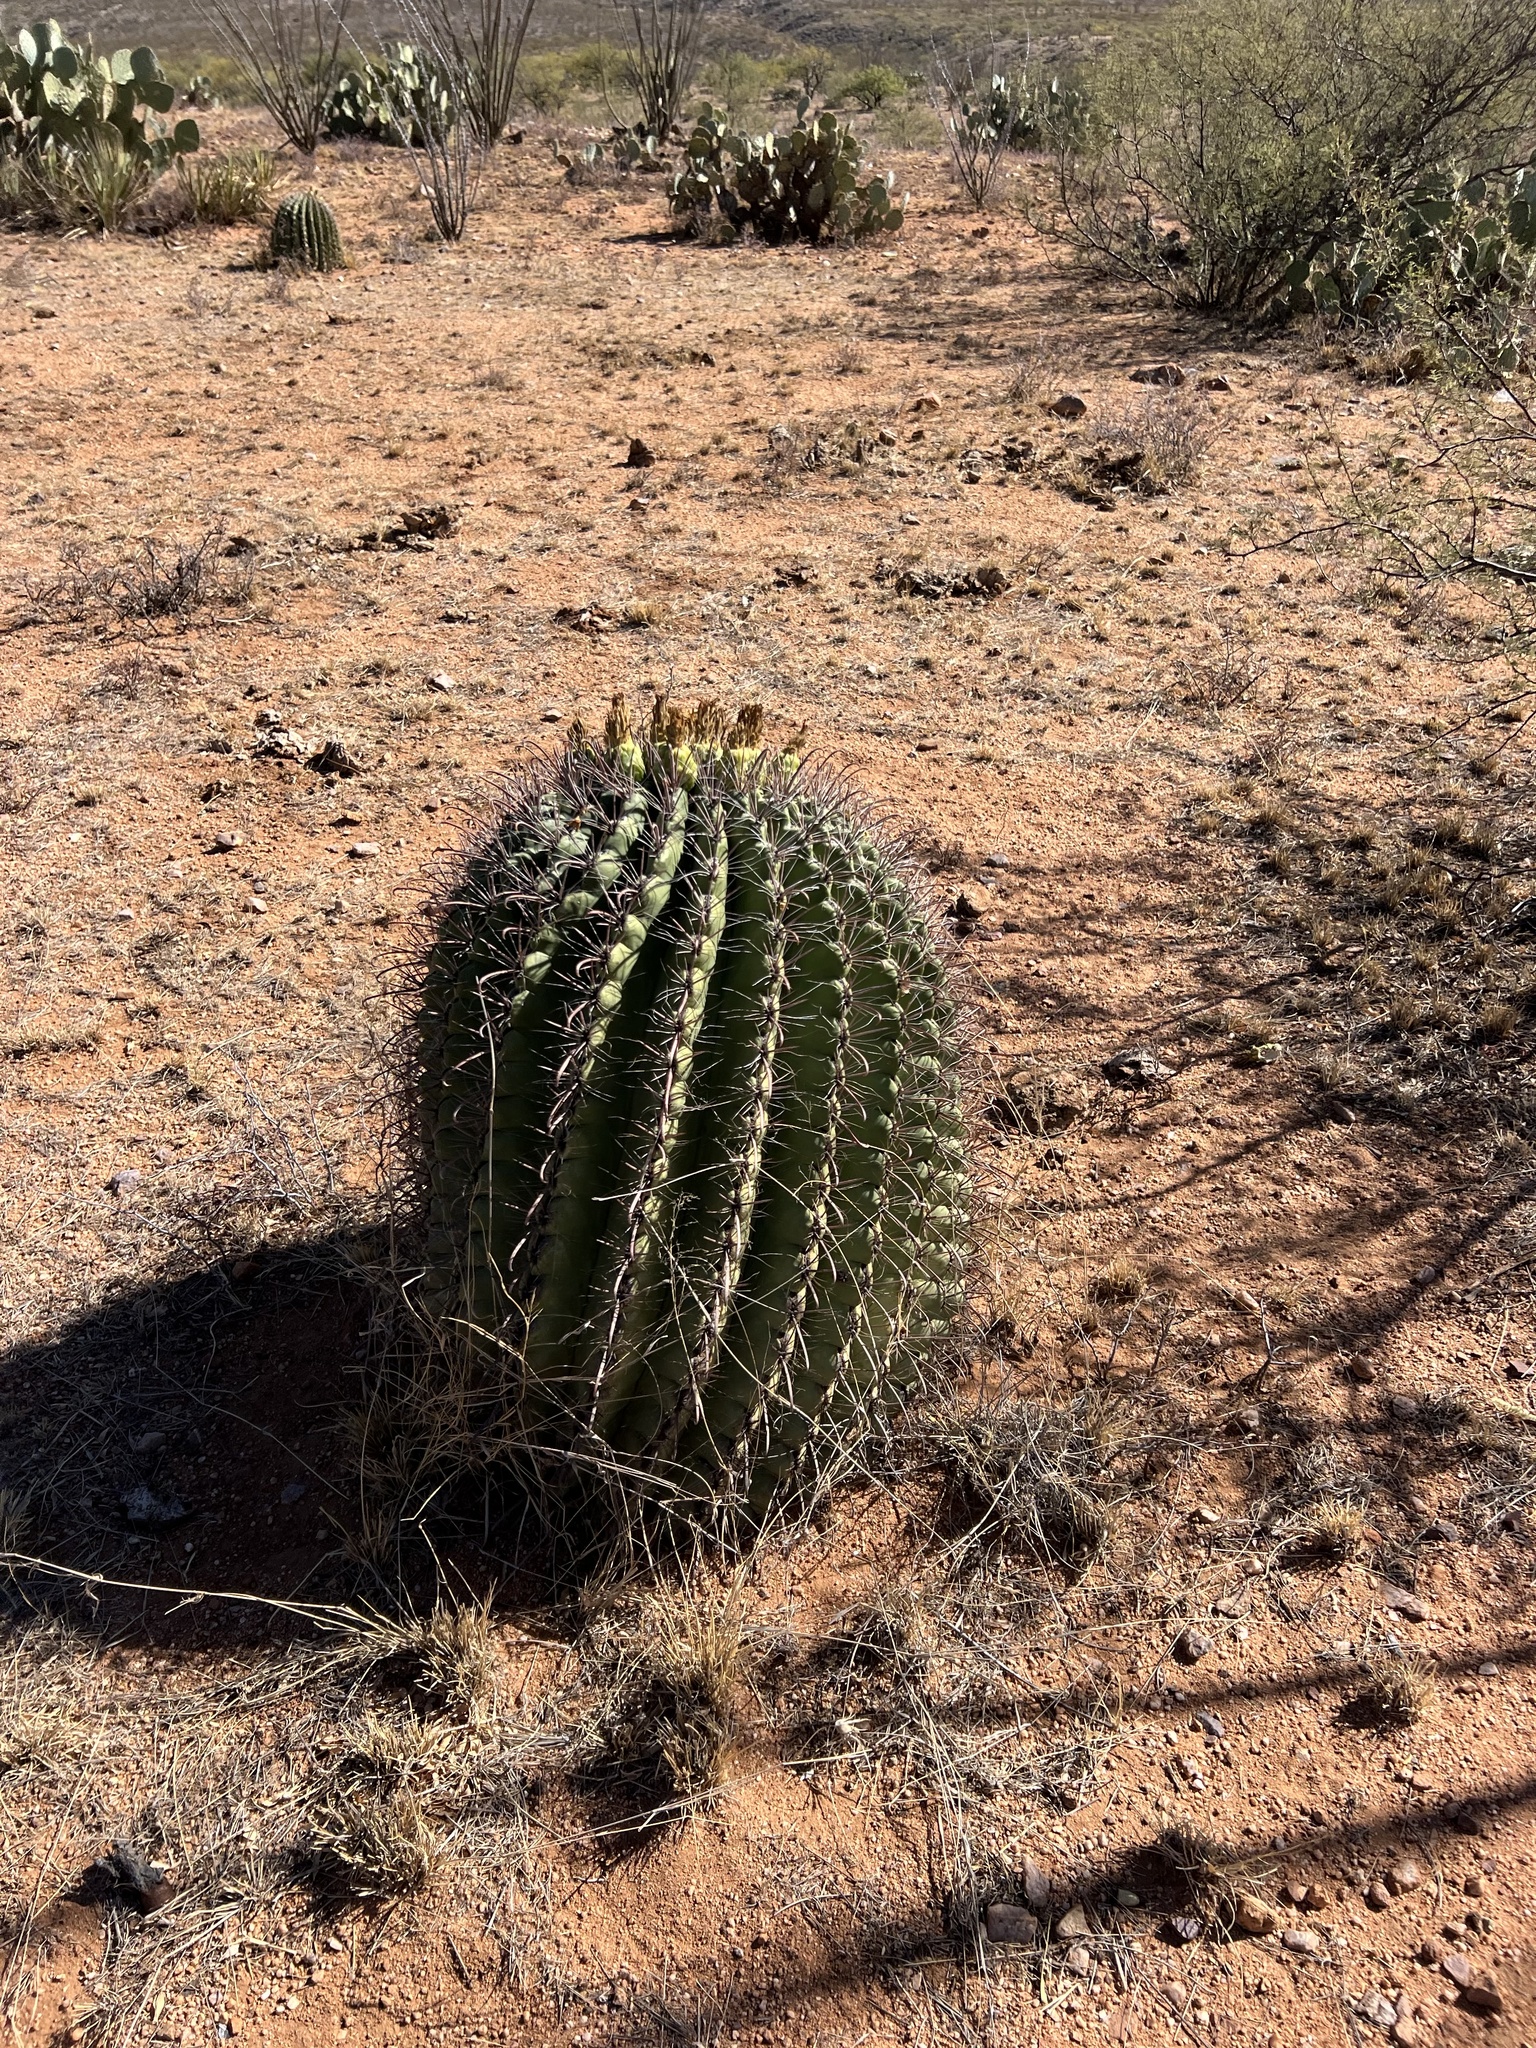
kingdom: Plantae
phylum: Tracheophyta
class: Magnoliopsida
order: Caryophyllales
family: Cactaceae
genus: Ferocactus
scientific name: Ferocactus wislizeni
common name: Candy barrel cactus
